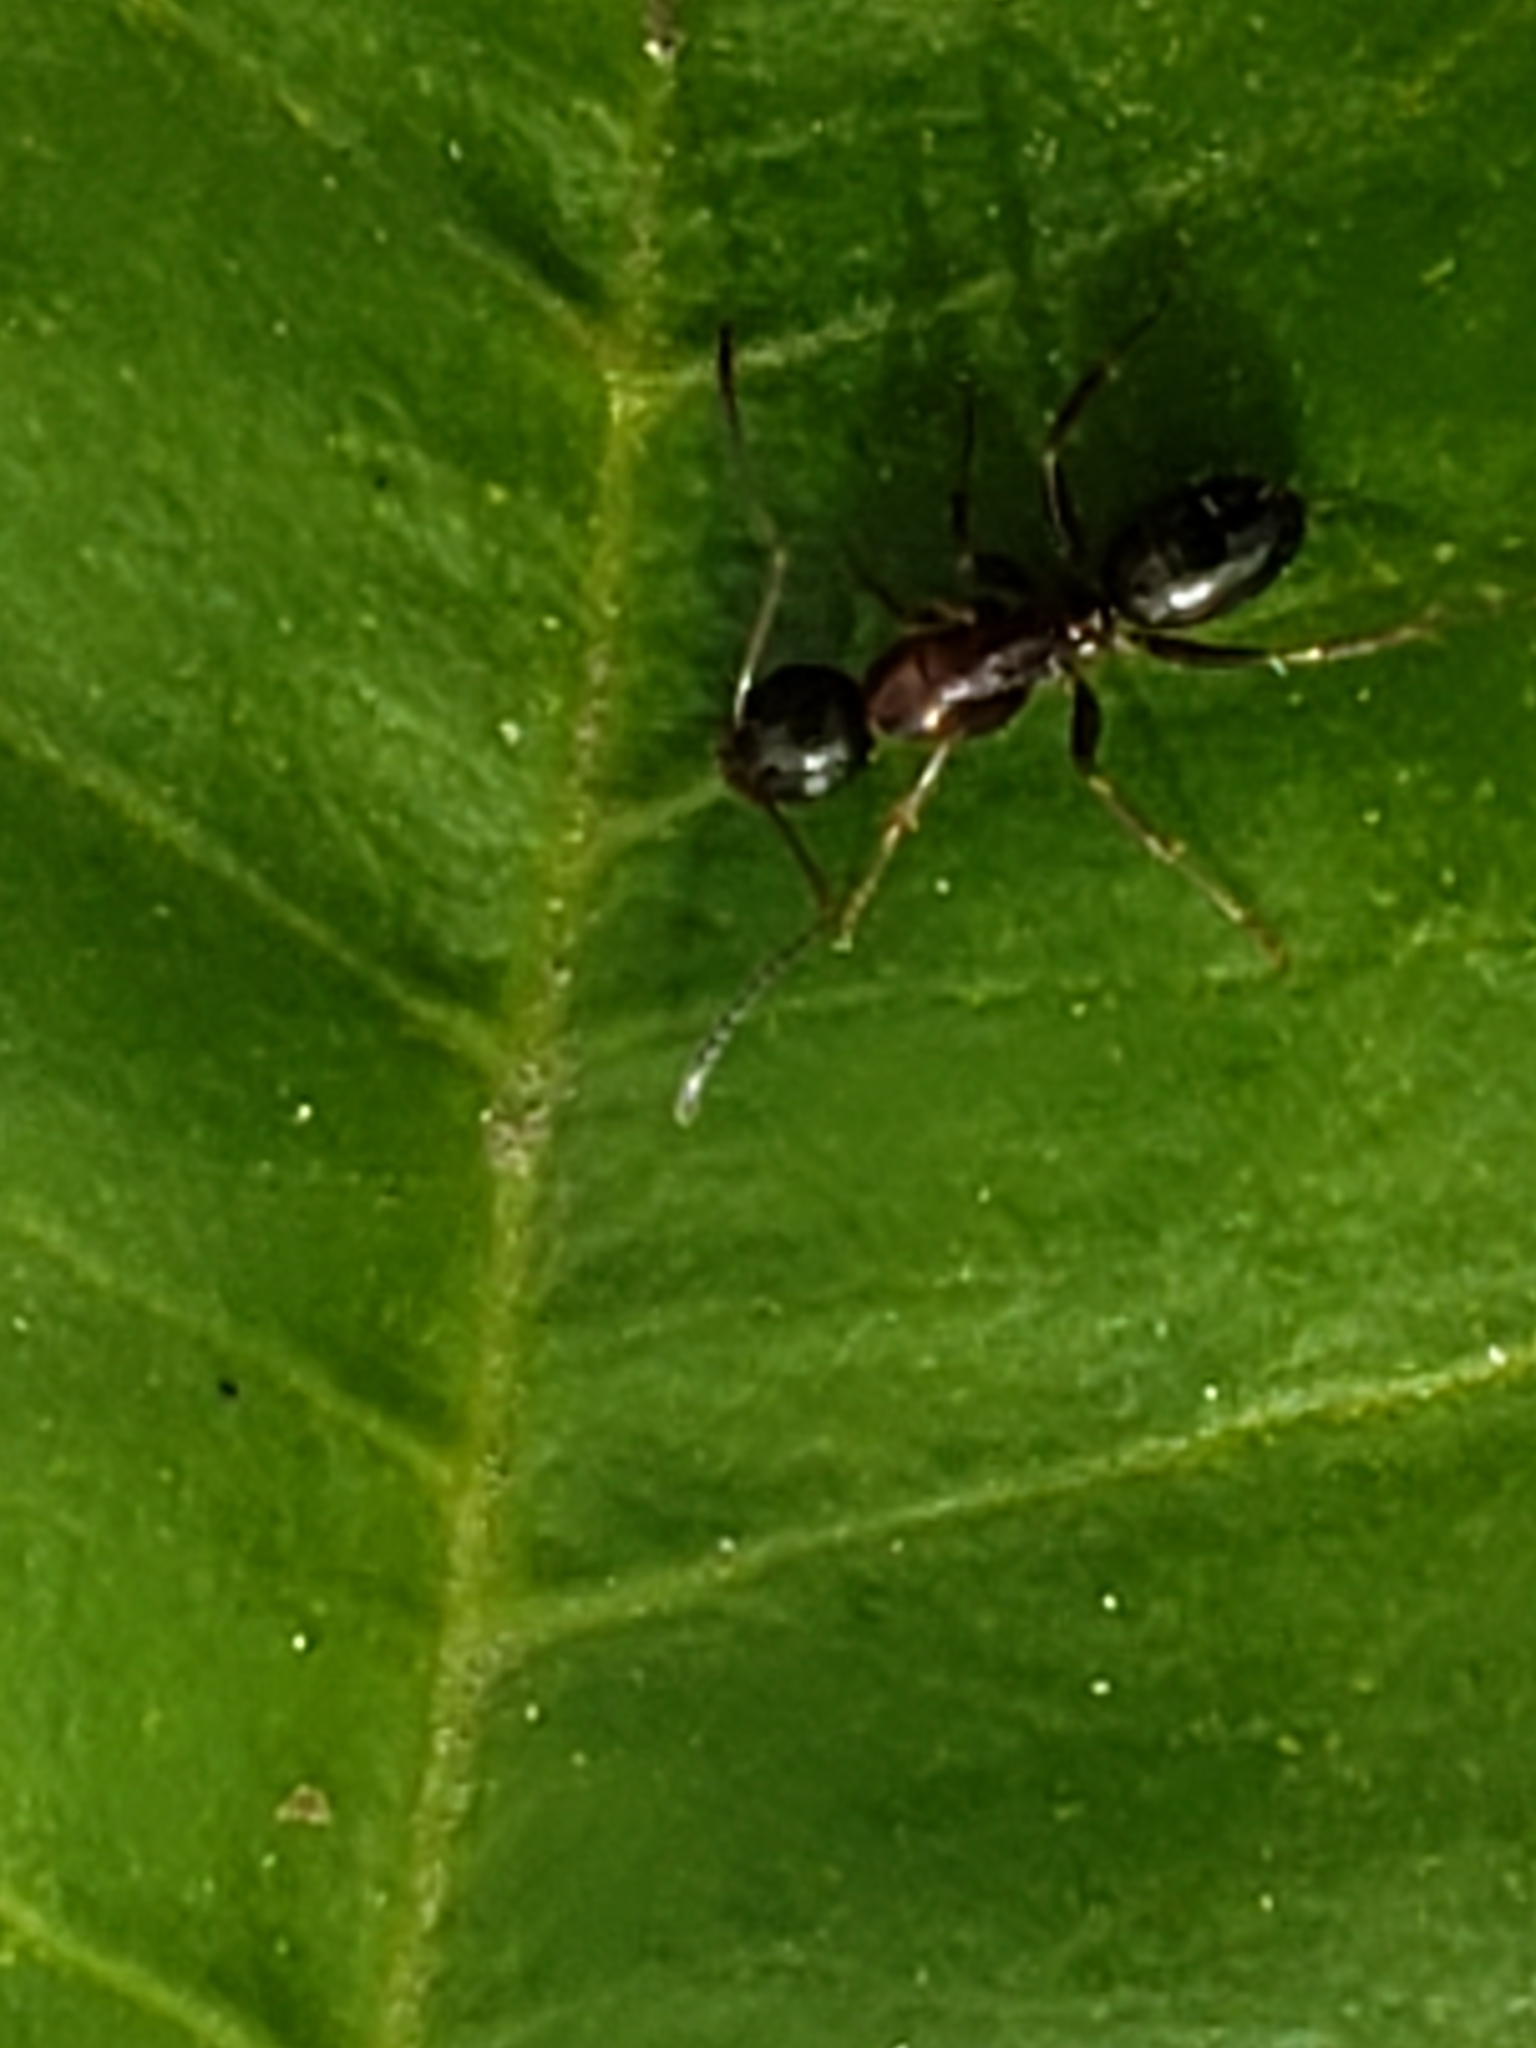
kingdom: Animalia
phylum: Arthropoda
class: Insecta
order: Hymenoptera
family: Formicidae
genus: Camponotus
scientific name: Camponotus nearcticus
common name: Smaller carpenter ant
